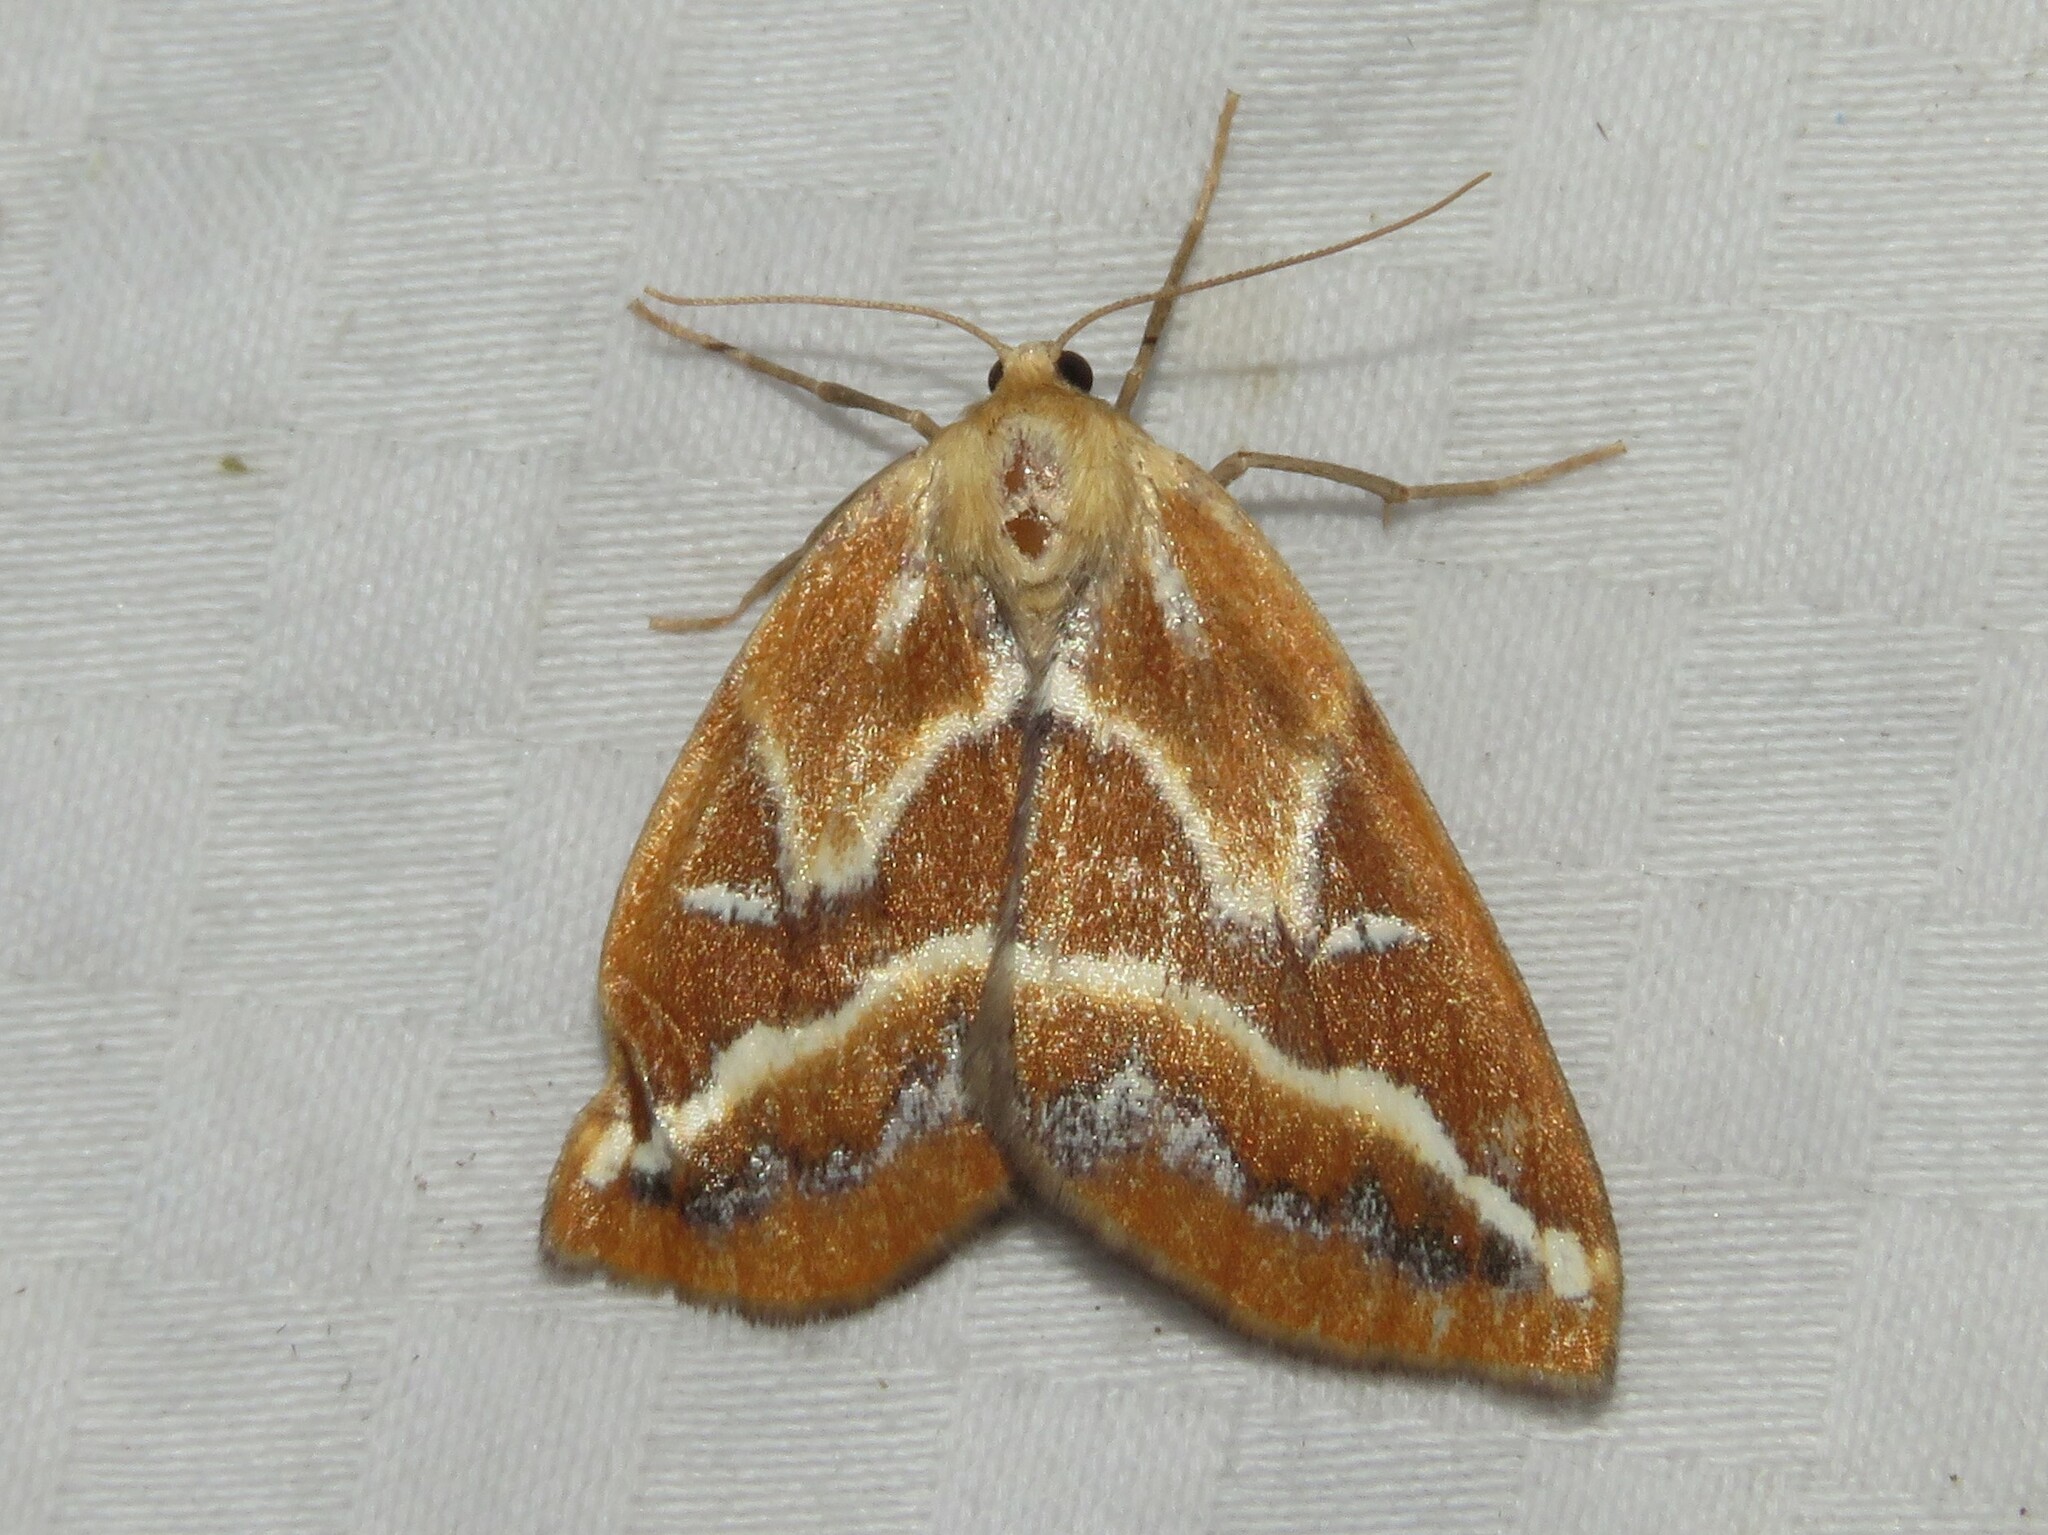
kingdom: Animalia
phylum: Arthropoda
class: Insecta
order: Lepidoptera
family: Geometridae
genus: Caripeta
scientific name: Caripeta angustiorata
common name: Brown pine looper
